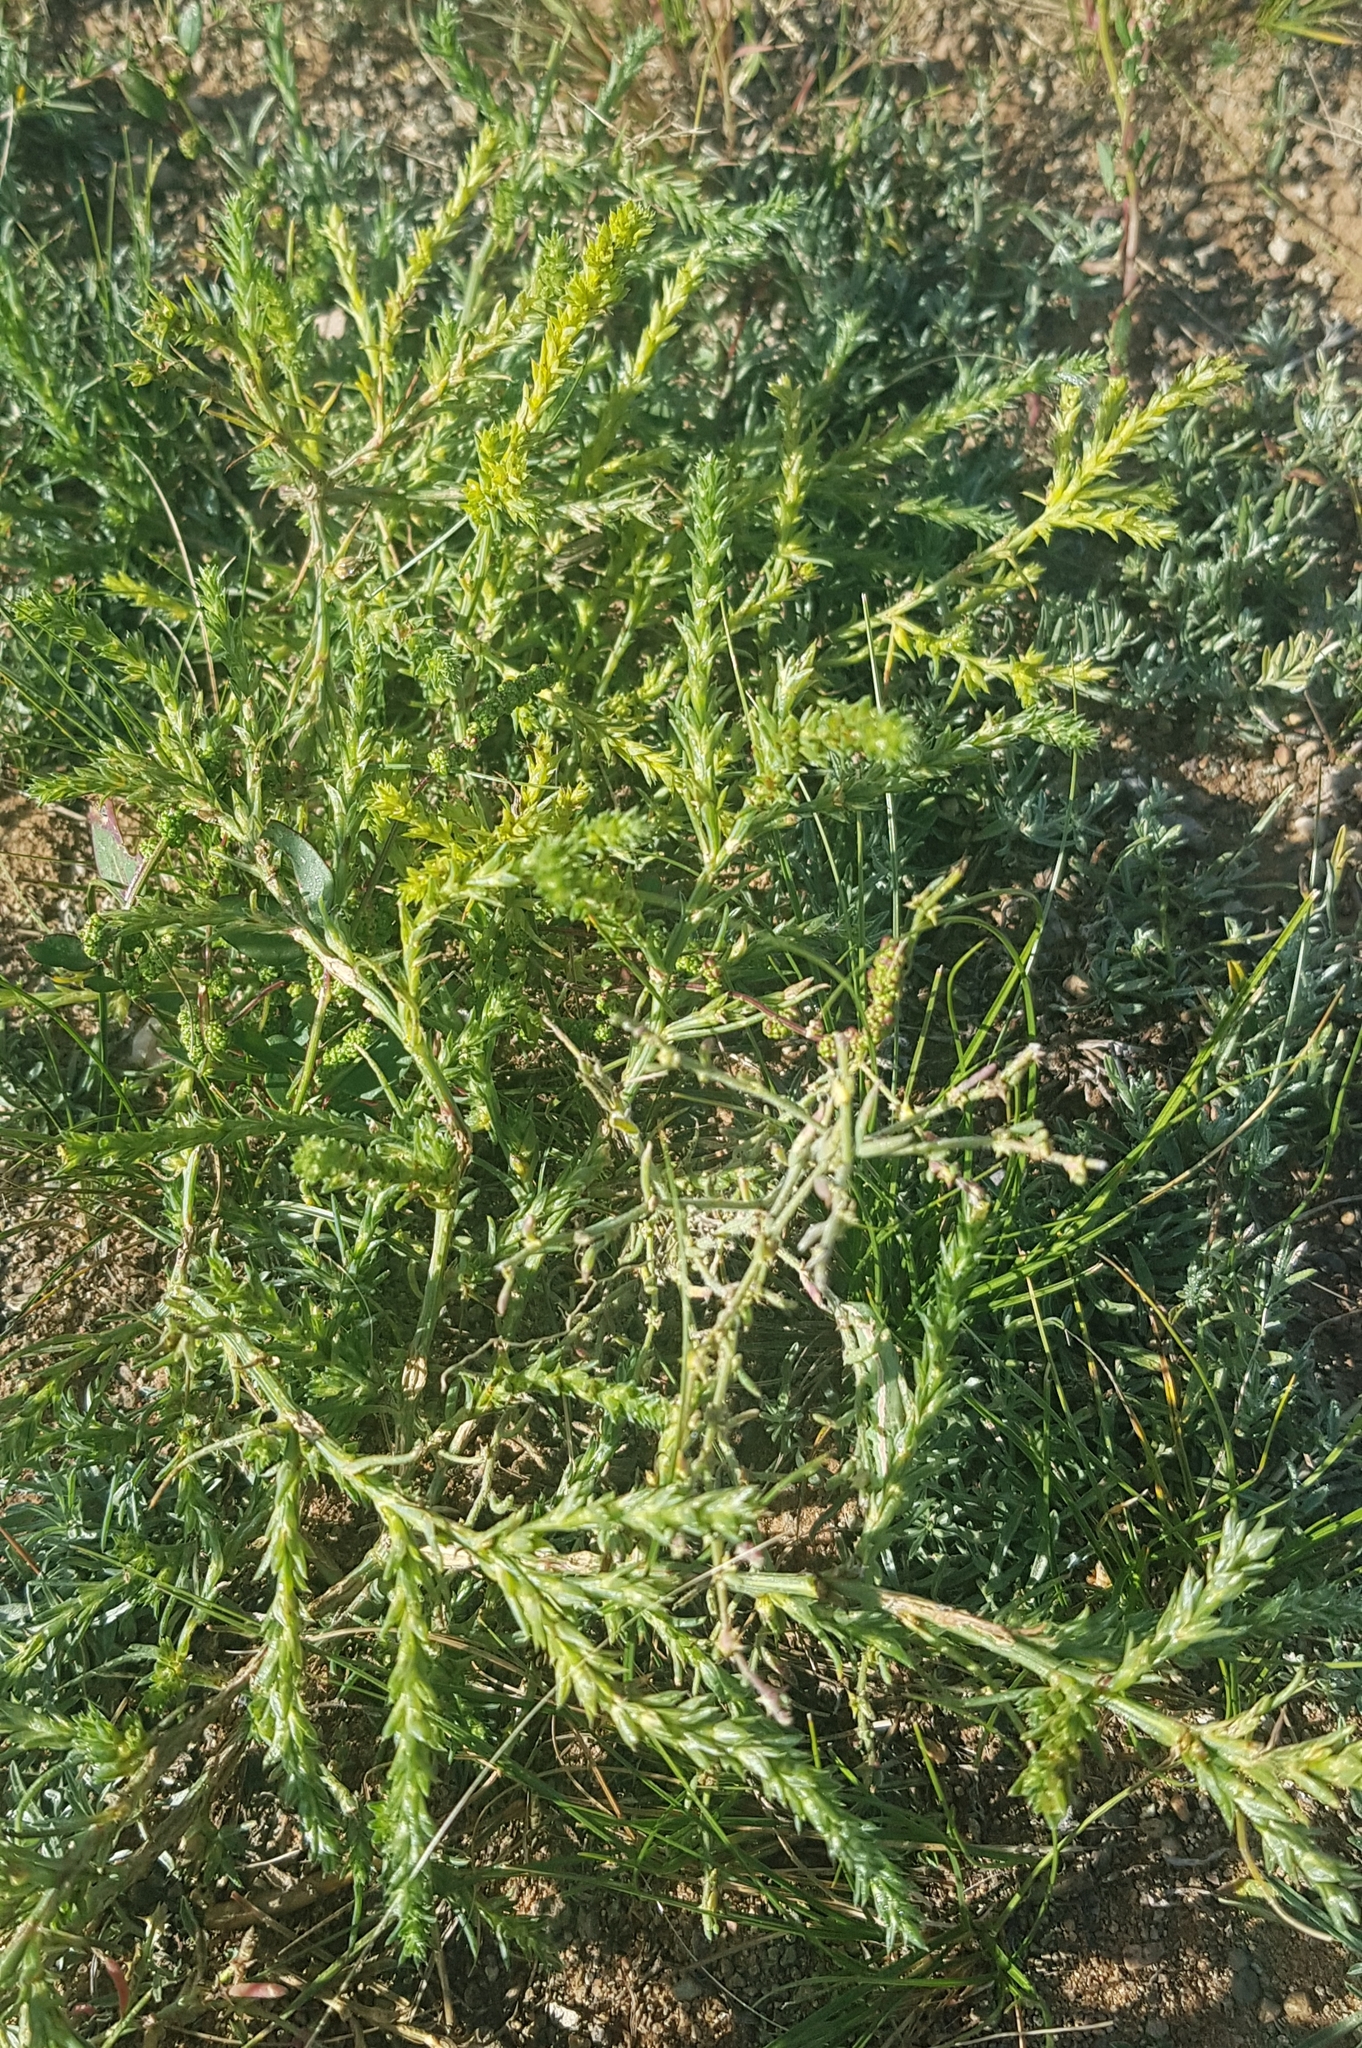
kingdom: Plantae
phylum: Tracheophyta
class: Magnoliopsida
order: Caryophyllales
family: Amaranthaceae
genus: Salsola
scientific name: Salsola collina
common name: Tumbleweed
